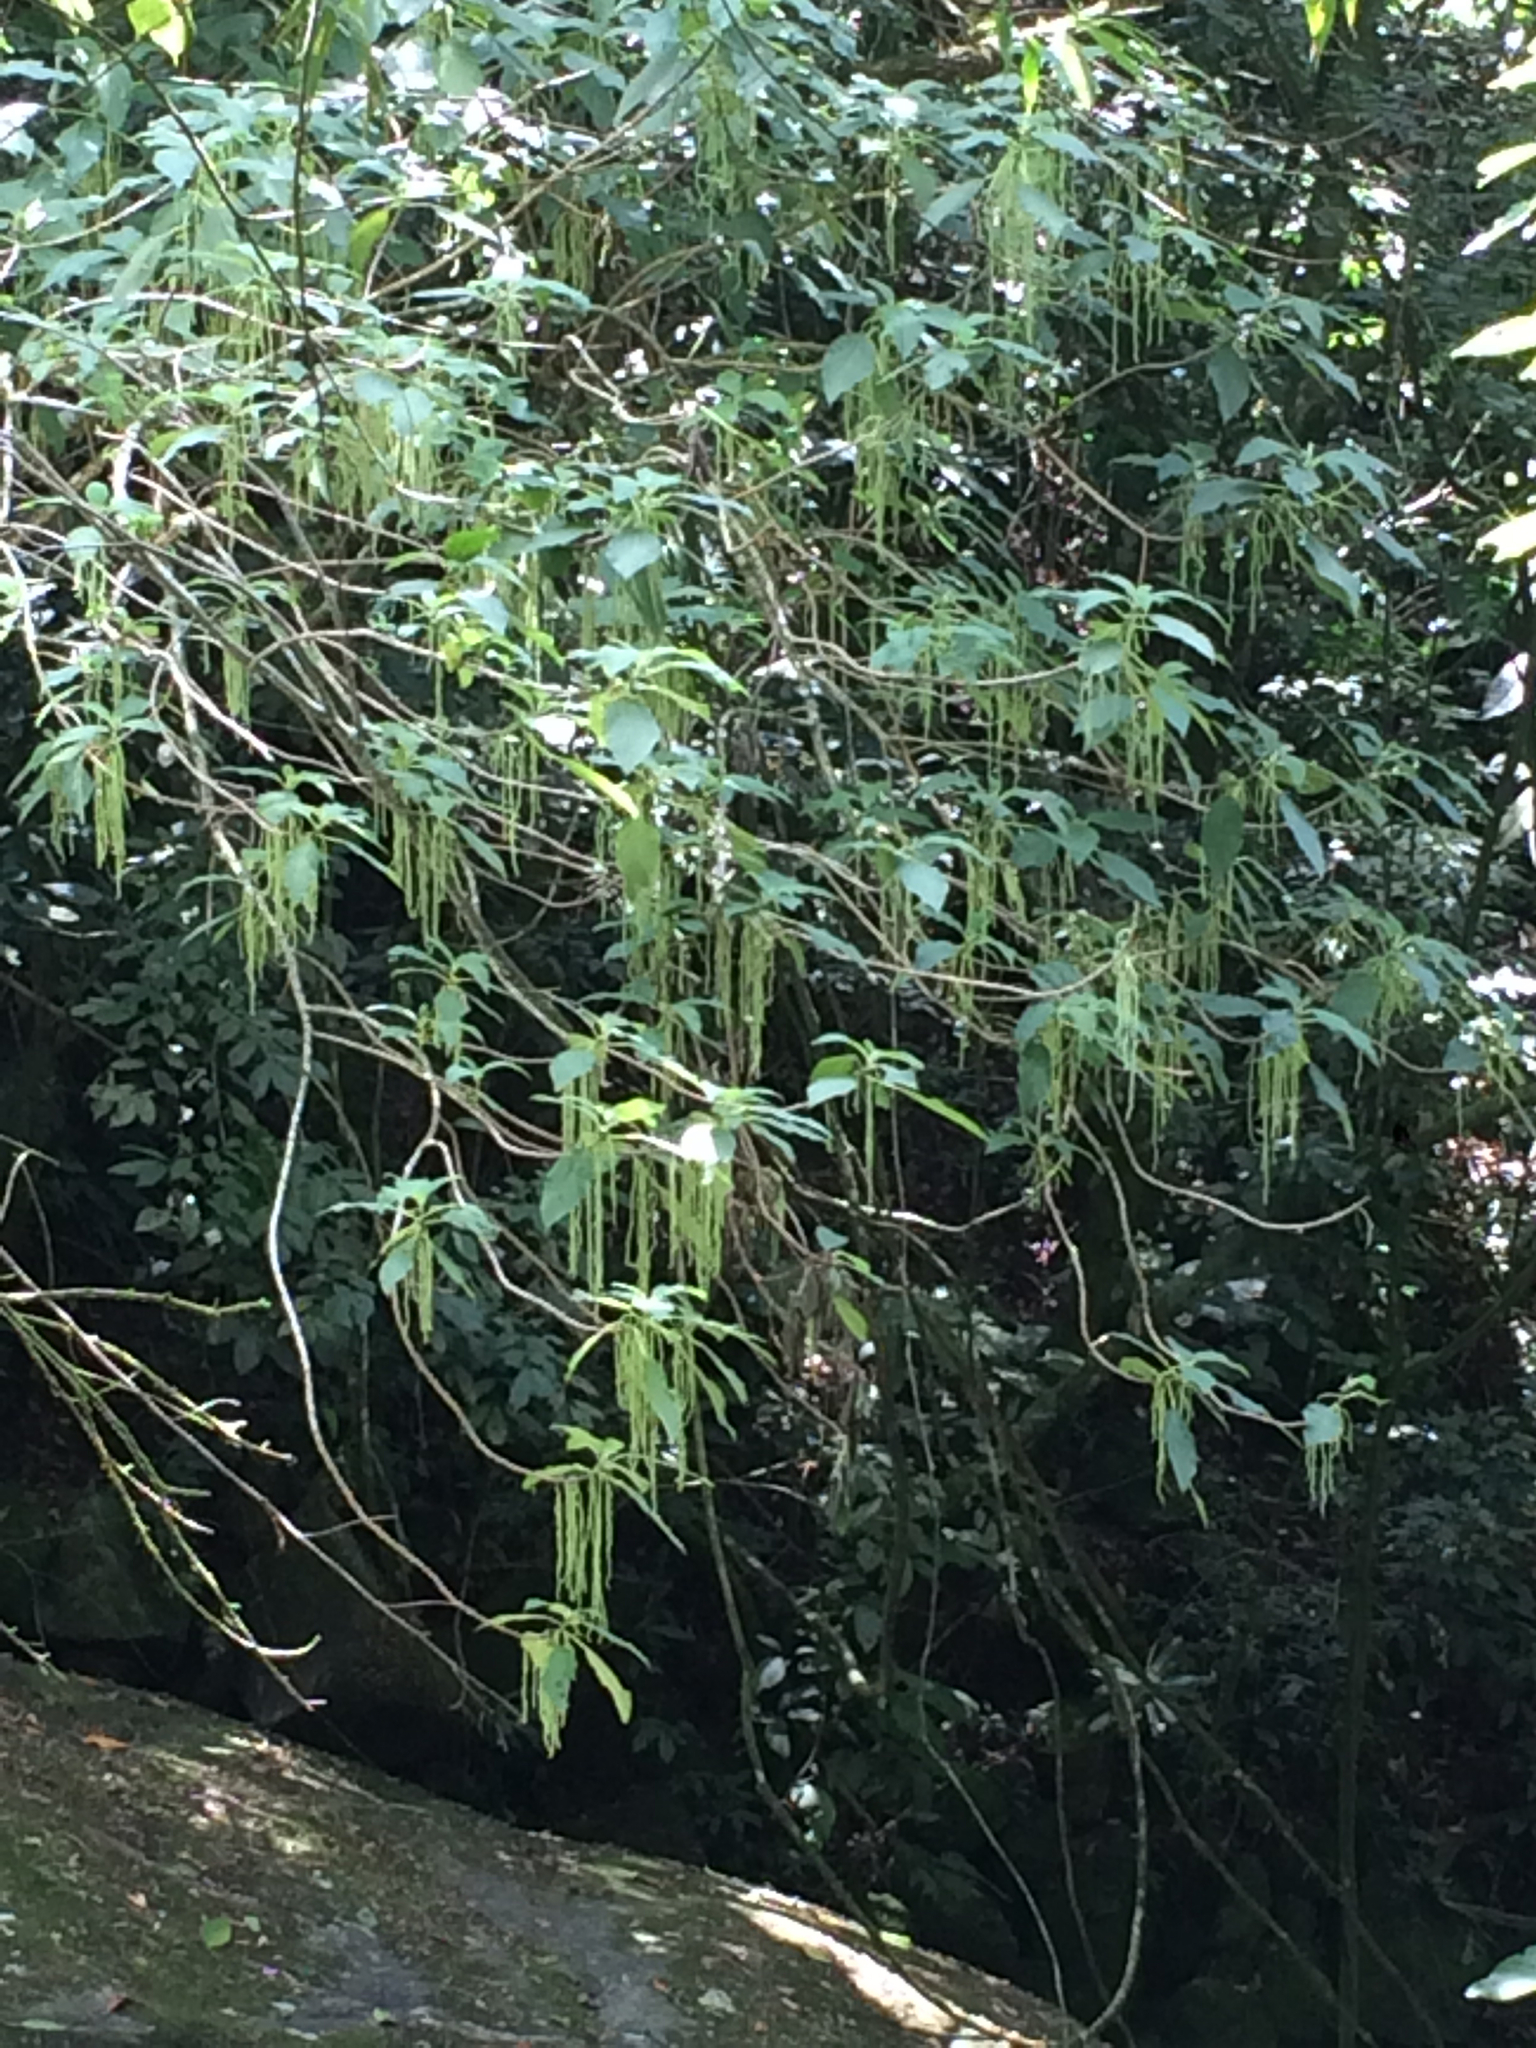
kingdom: Plantae
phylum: Tracheophyta
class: Magnoliopsida
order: Rosales
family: Urticaceae
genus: Boehmeria
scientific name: Boehmeria caudata
